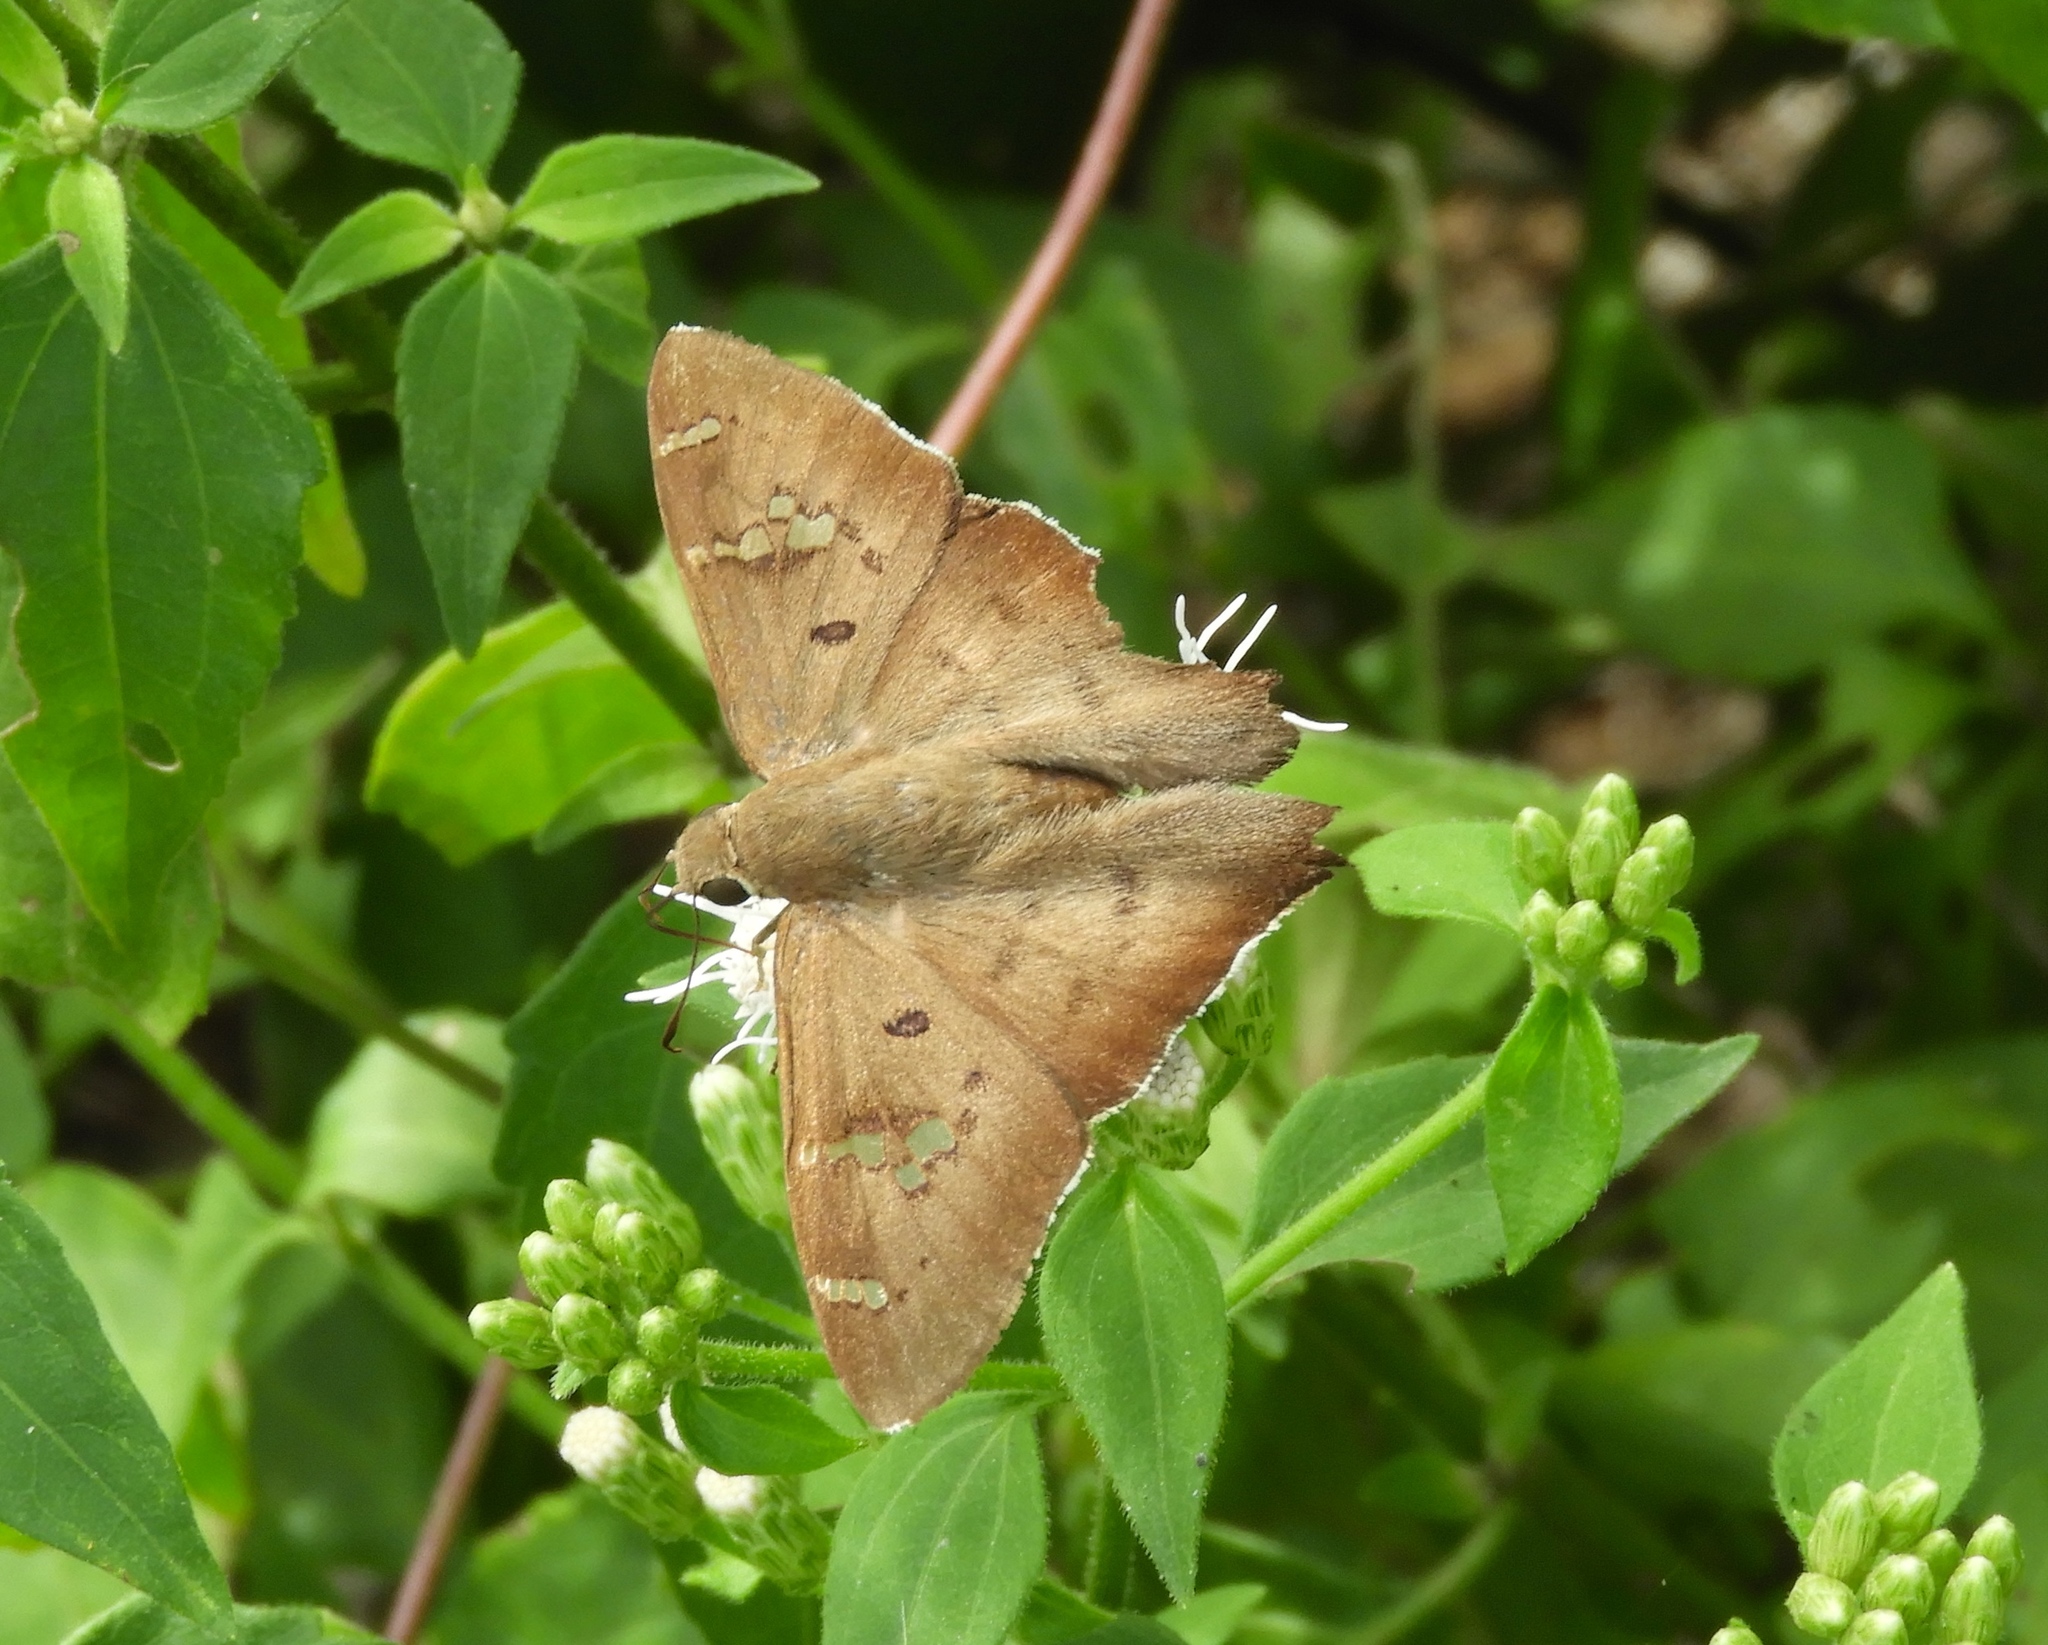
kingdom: Animalia
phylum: Arthropoda
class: Insecta
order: Lepidoptera
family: Hesperiidae
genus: Ectomis
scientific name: Ectomis
